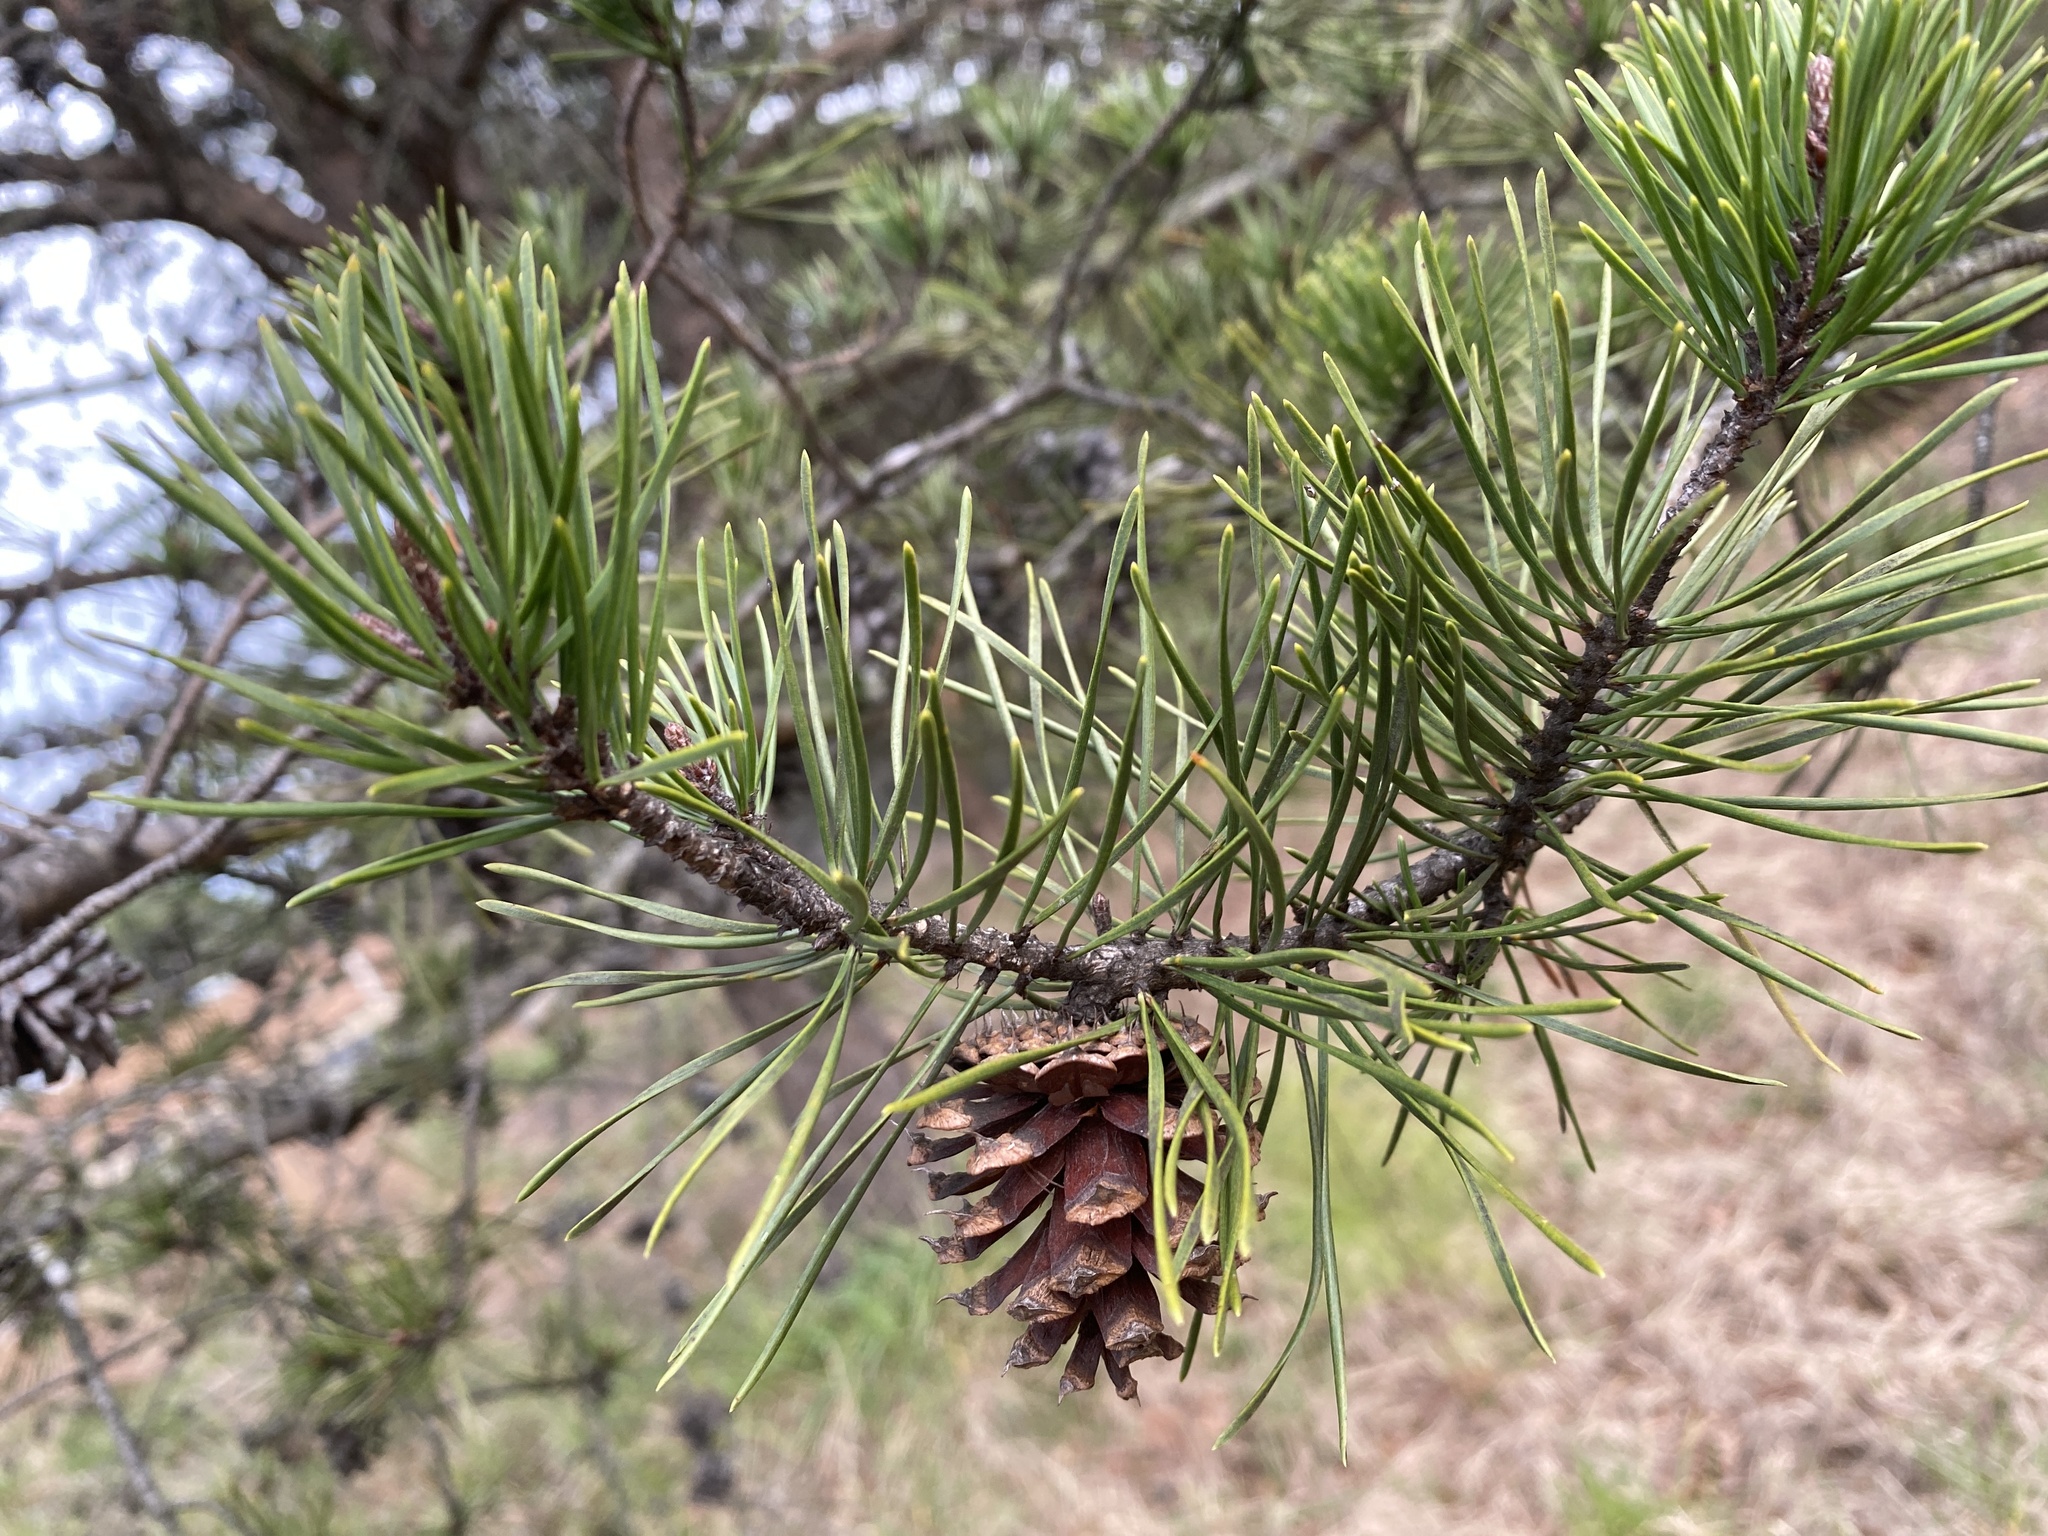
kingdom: Plantae
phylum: Tracheophyta
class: Pinopsida
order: Pinales
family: Pinaceae
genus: Pinus
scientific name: Pinus virginiana
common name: Scrub pine
